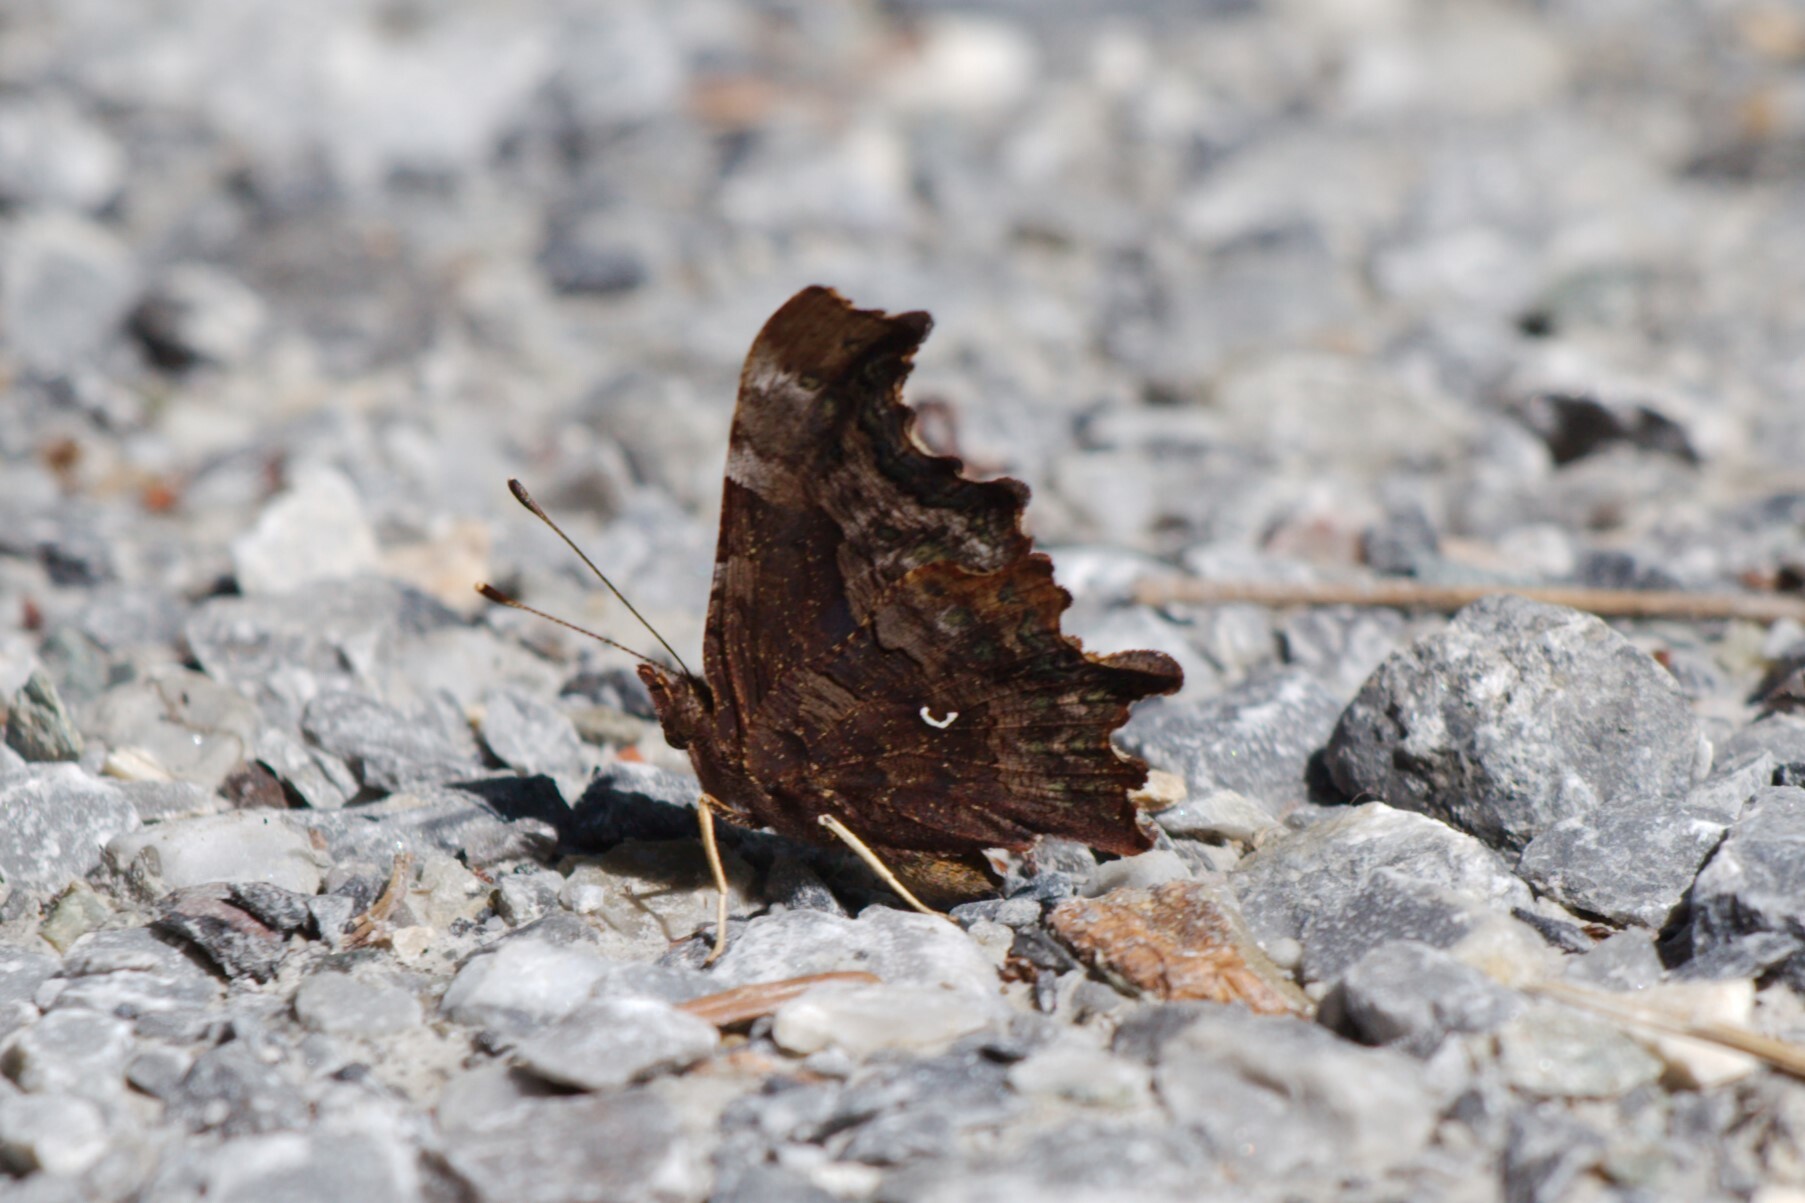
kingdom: Animalia
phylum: Arthropoda
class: Insecta
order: Lepidoptera
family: Nymphalidae
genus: Polygonia
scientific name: Polygonia c-album
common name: Comma
